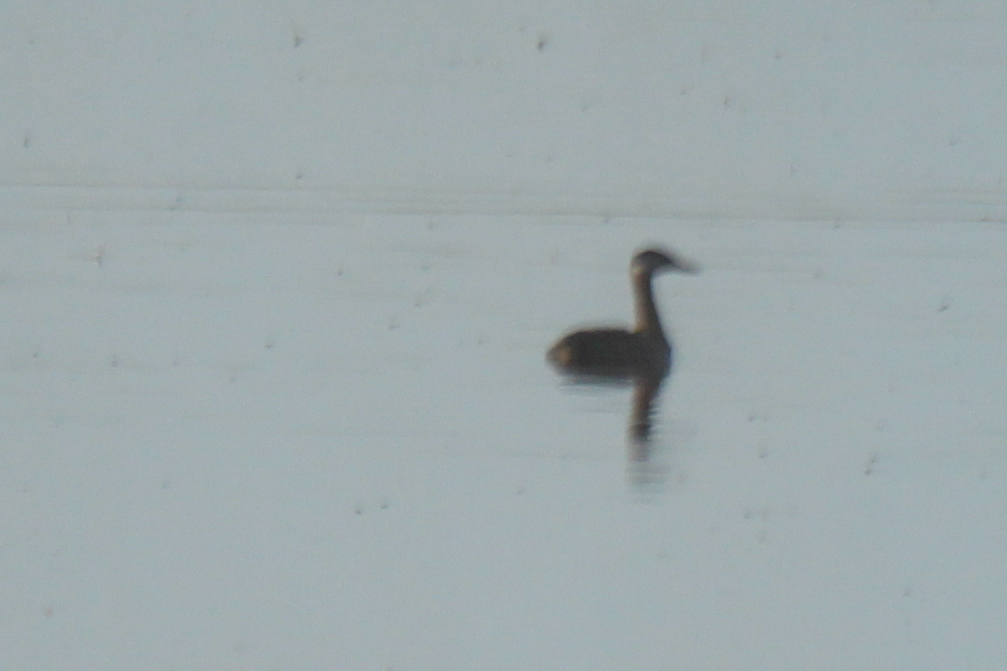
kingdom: Animalia
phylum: Chordata
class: Aves
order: Podicipediformes
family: Podicipedidae
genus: Podiceps
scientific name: Podiceps grisegena
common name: Red-necked grebe
